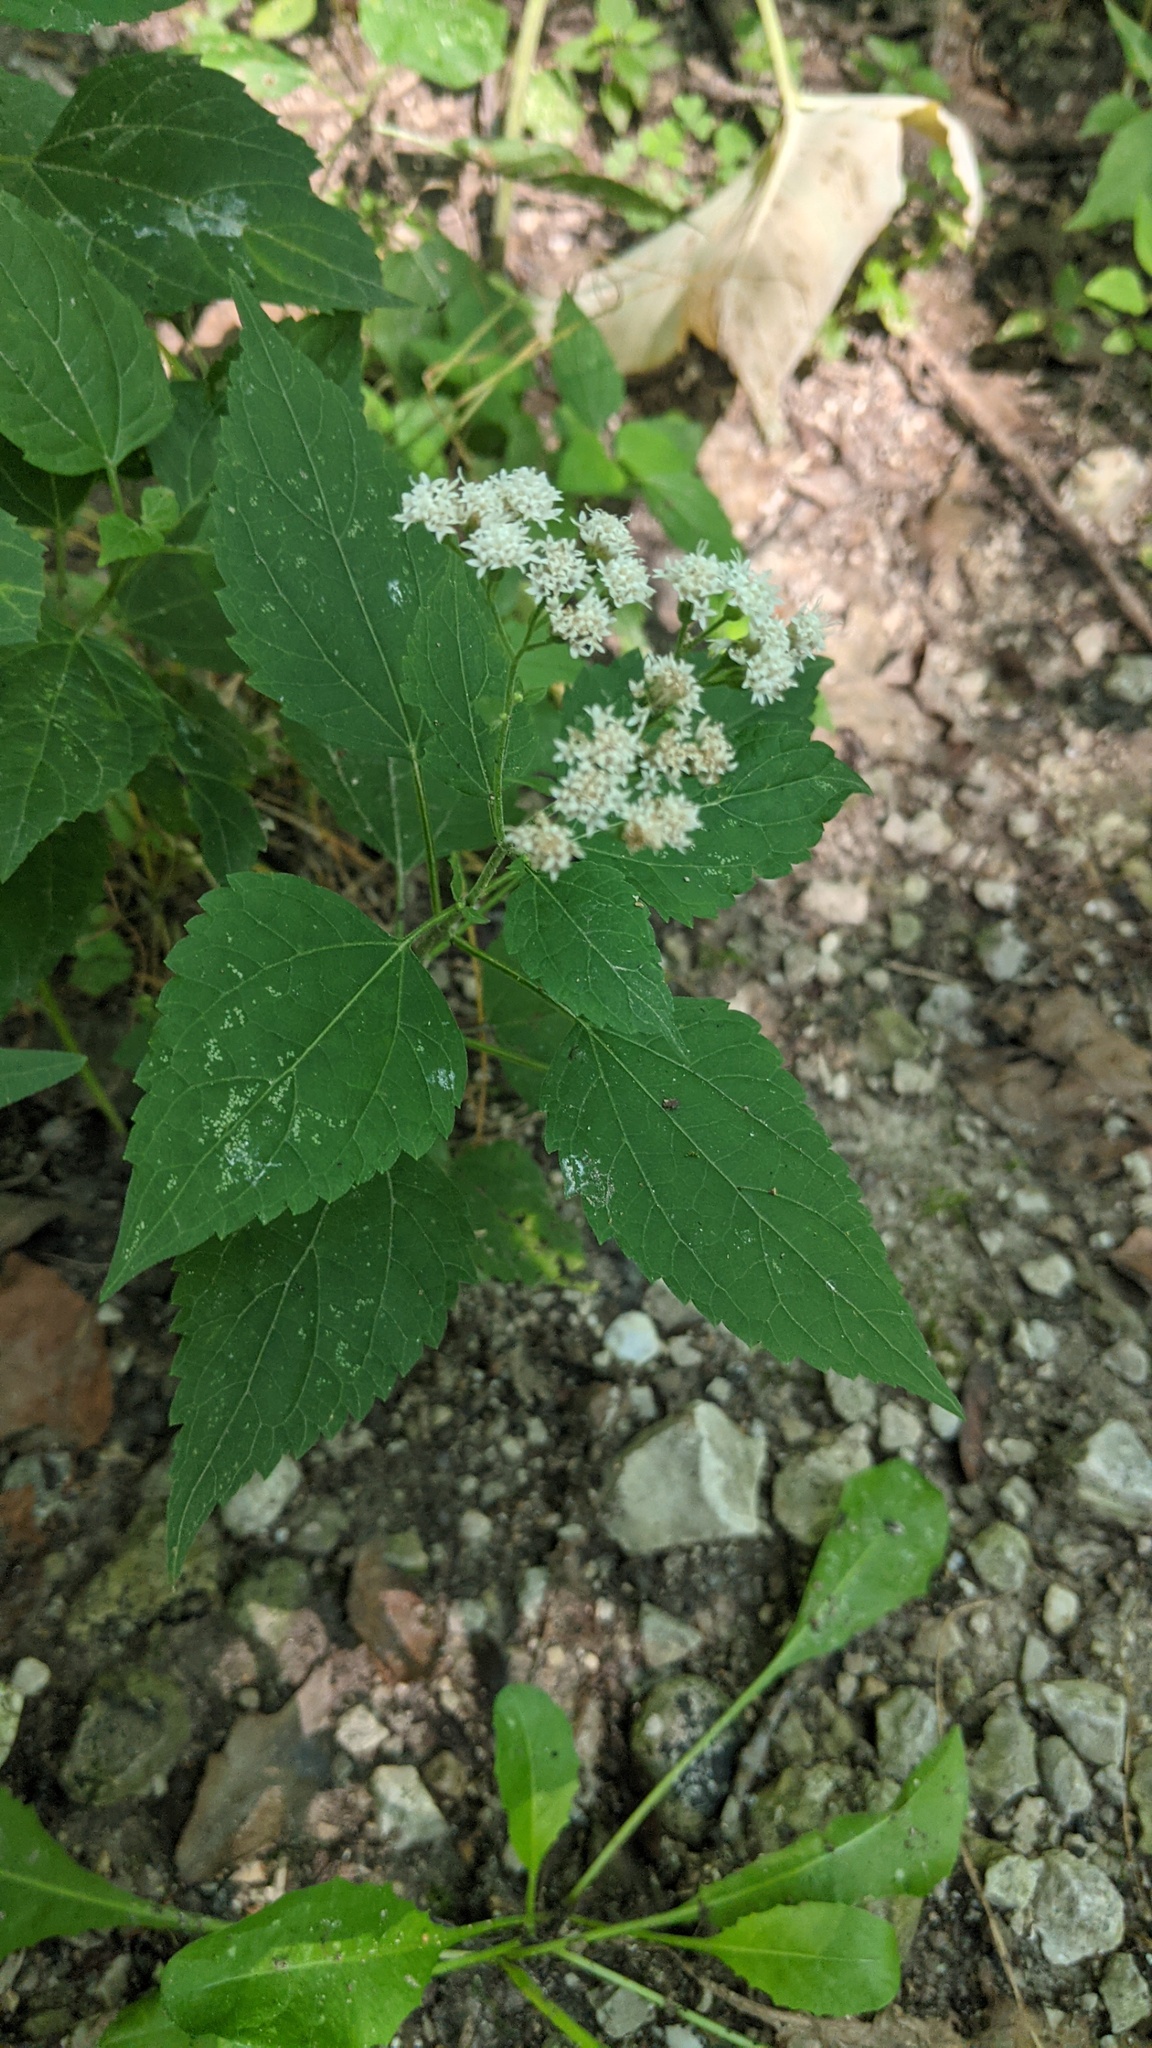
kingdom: Plantae
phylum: Tracheophyta
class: Magnoliopsida
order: Asterales
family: Asteraceae
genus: Ageratina
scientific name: Ageratina altissima
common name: White snakeroot
